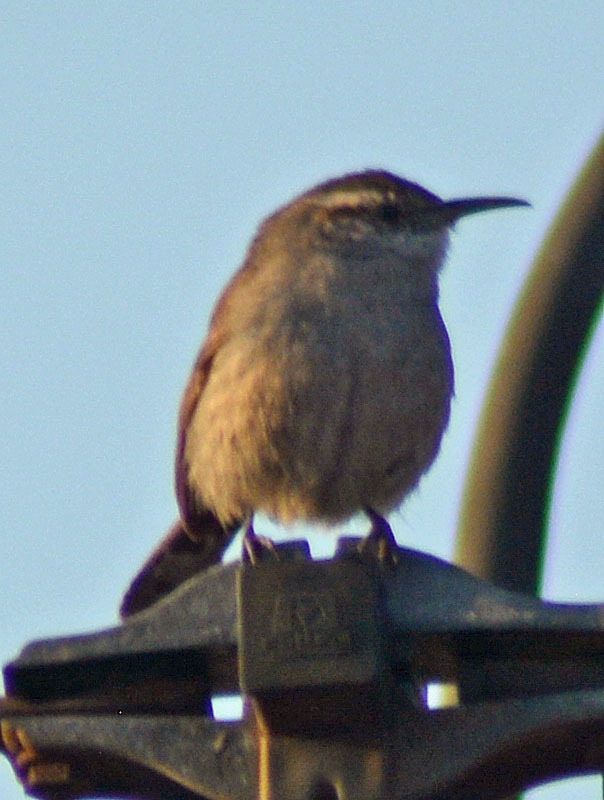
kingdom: Animalia
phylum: Chordata
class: Aves
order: Passeriformes
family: Troglodytidae
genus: Thryomanes
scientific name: Thryomanes bewickii
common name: Bewick's wren
